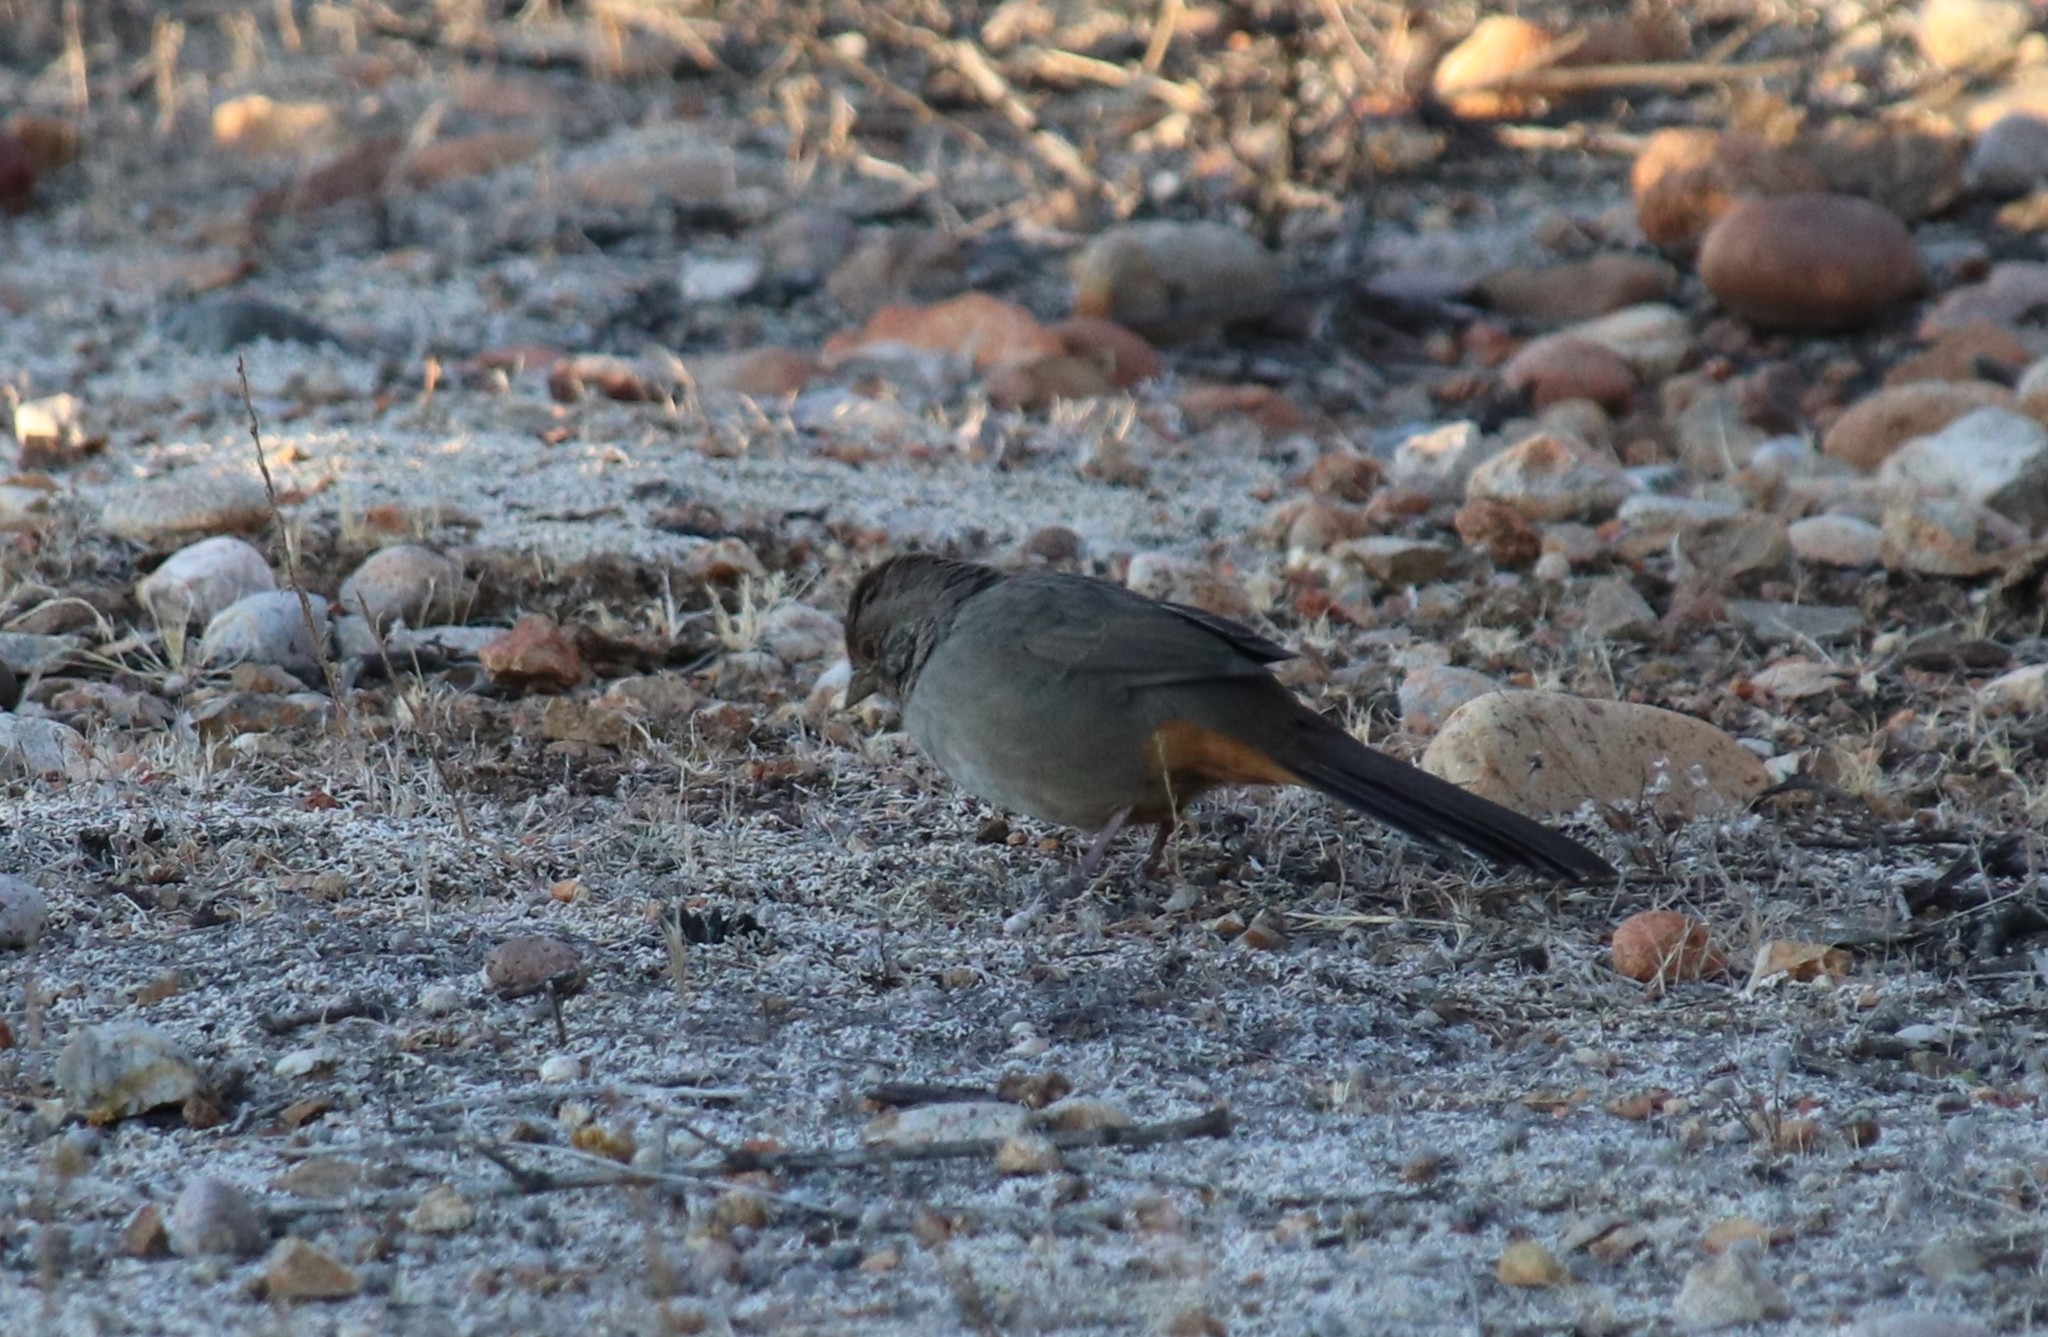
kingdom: Animalia
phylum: Chordata
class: Aves
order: Passeriformes
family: Passerellidae
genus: Melozone
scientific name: Melozone crissalis
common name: California towhee
